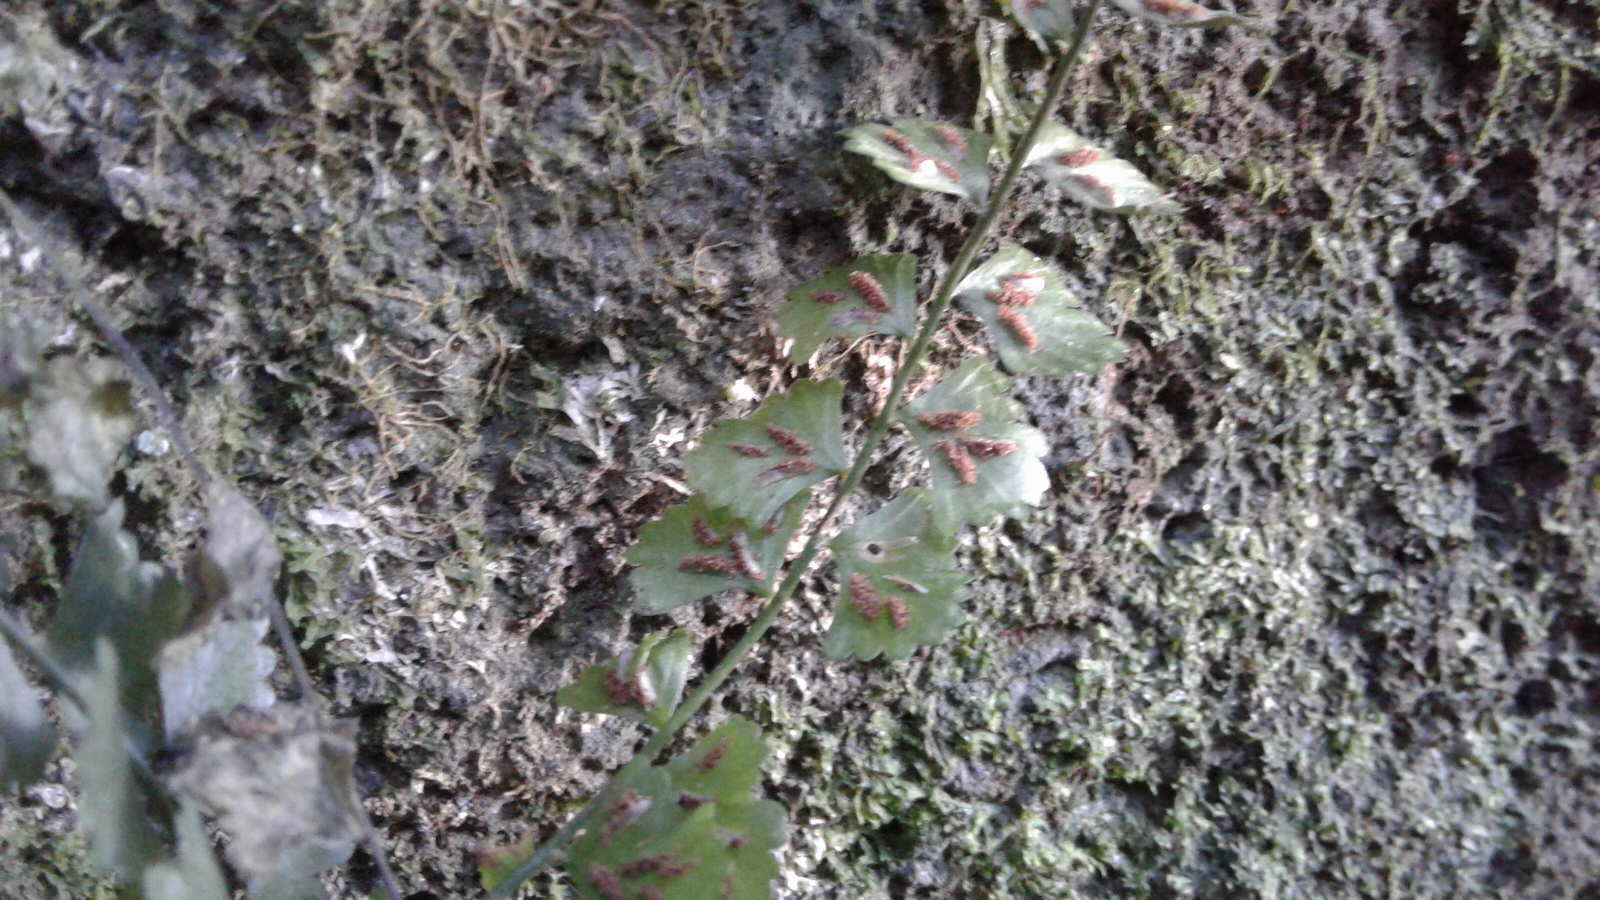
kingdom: Plantae
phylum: Tracheophyta
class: Polypodiopsida
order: Polypodiales
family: Aspleniaceae
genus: Asplenium
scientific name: Asplenium flabellifolium
